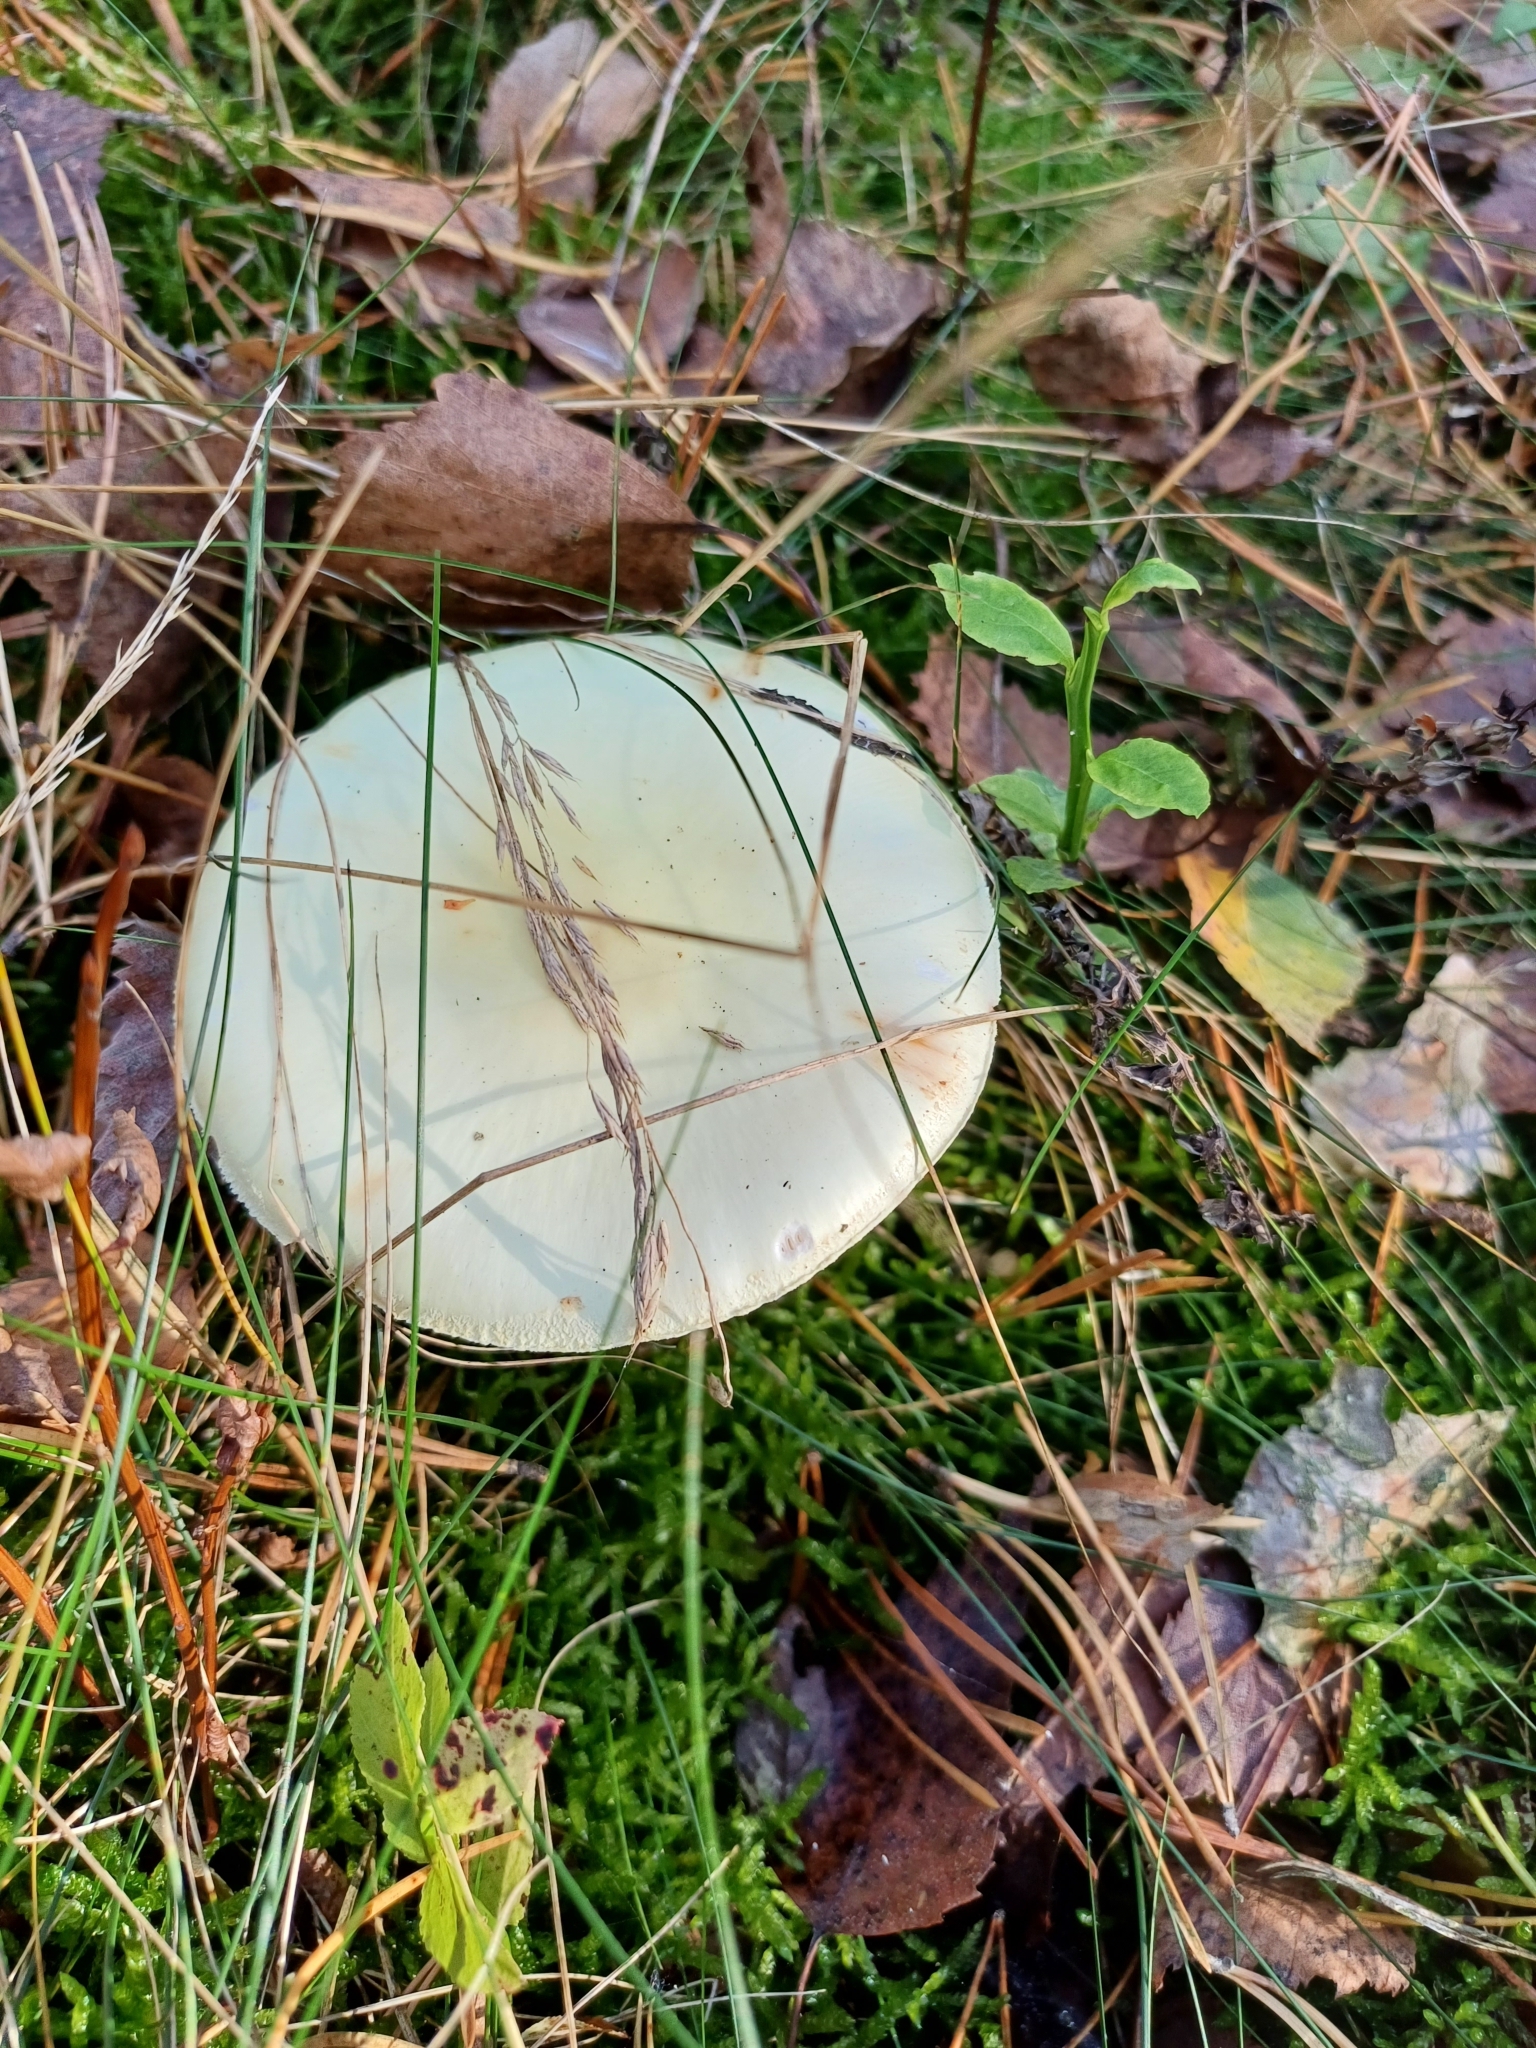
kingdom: Fungi
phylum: Basidiomycota
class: Agaricomycetes
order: Agaricales
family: Amanitaceae
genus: Amanita
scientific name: Amanita citrina
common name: False death-cap
